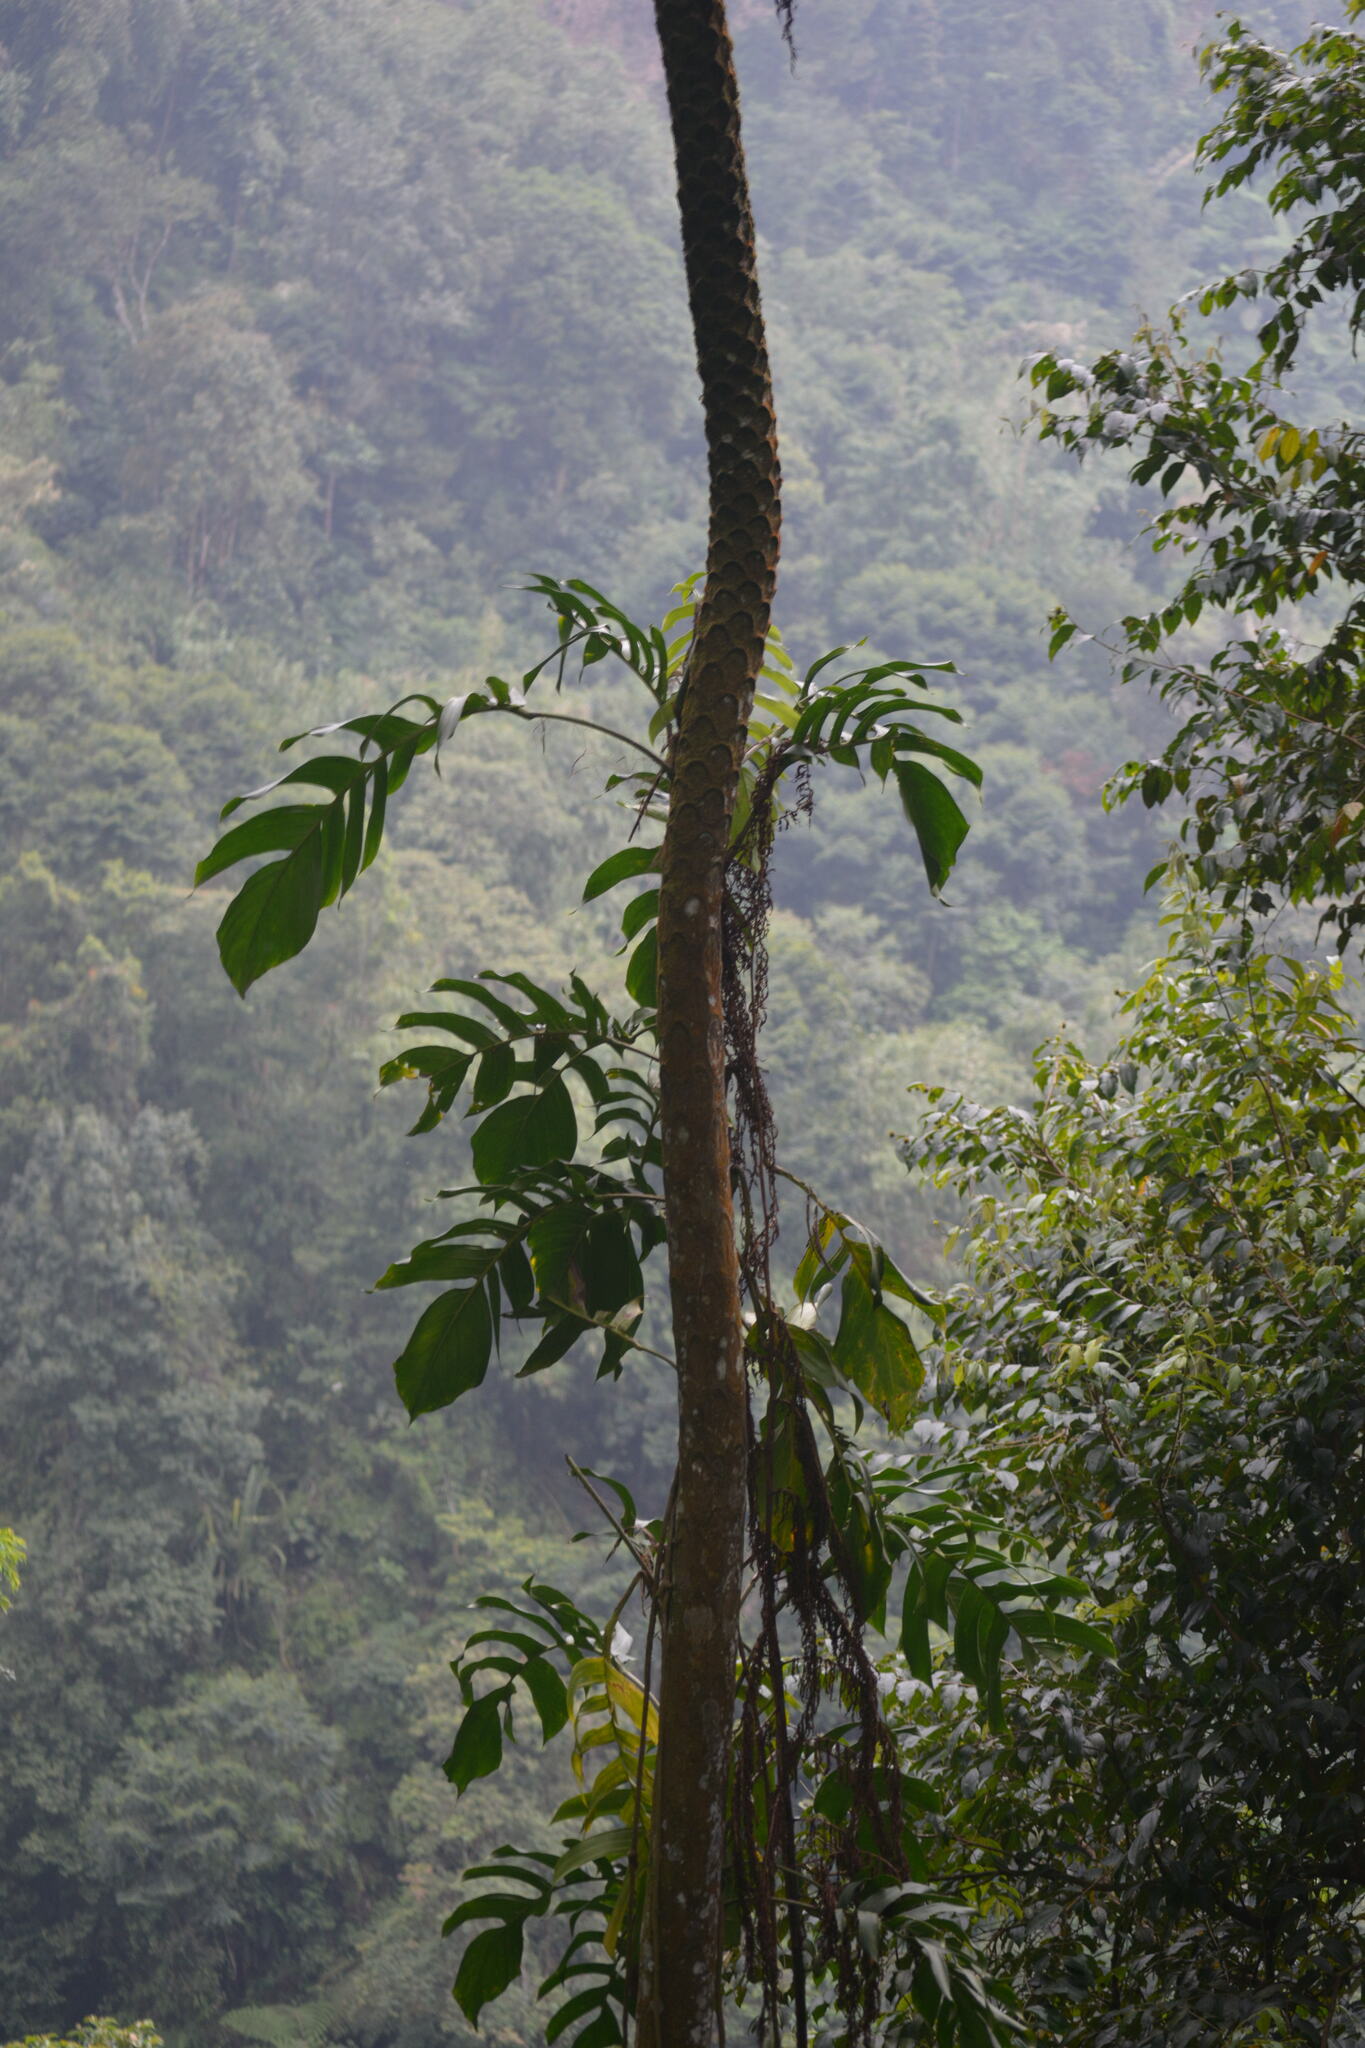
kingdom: Plantae
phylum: Tracheophyta
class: Liliopsida
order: Alismatales
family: Araceae
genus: Epipremnum
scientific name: Epipremnum pinnatum
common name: Centipede tongavine
